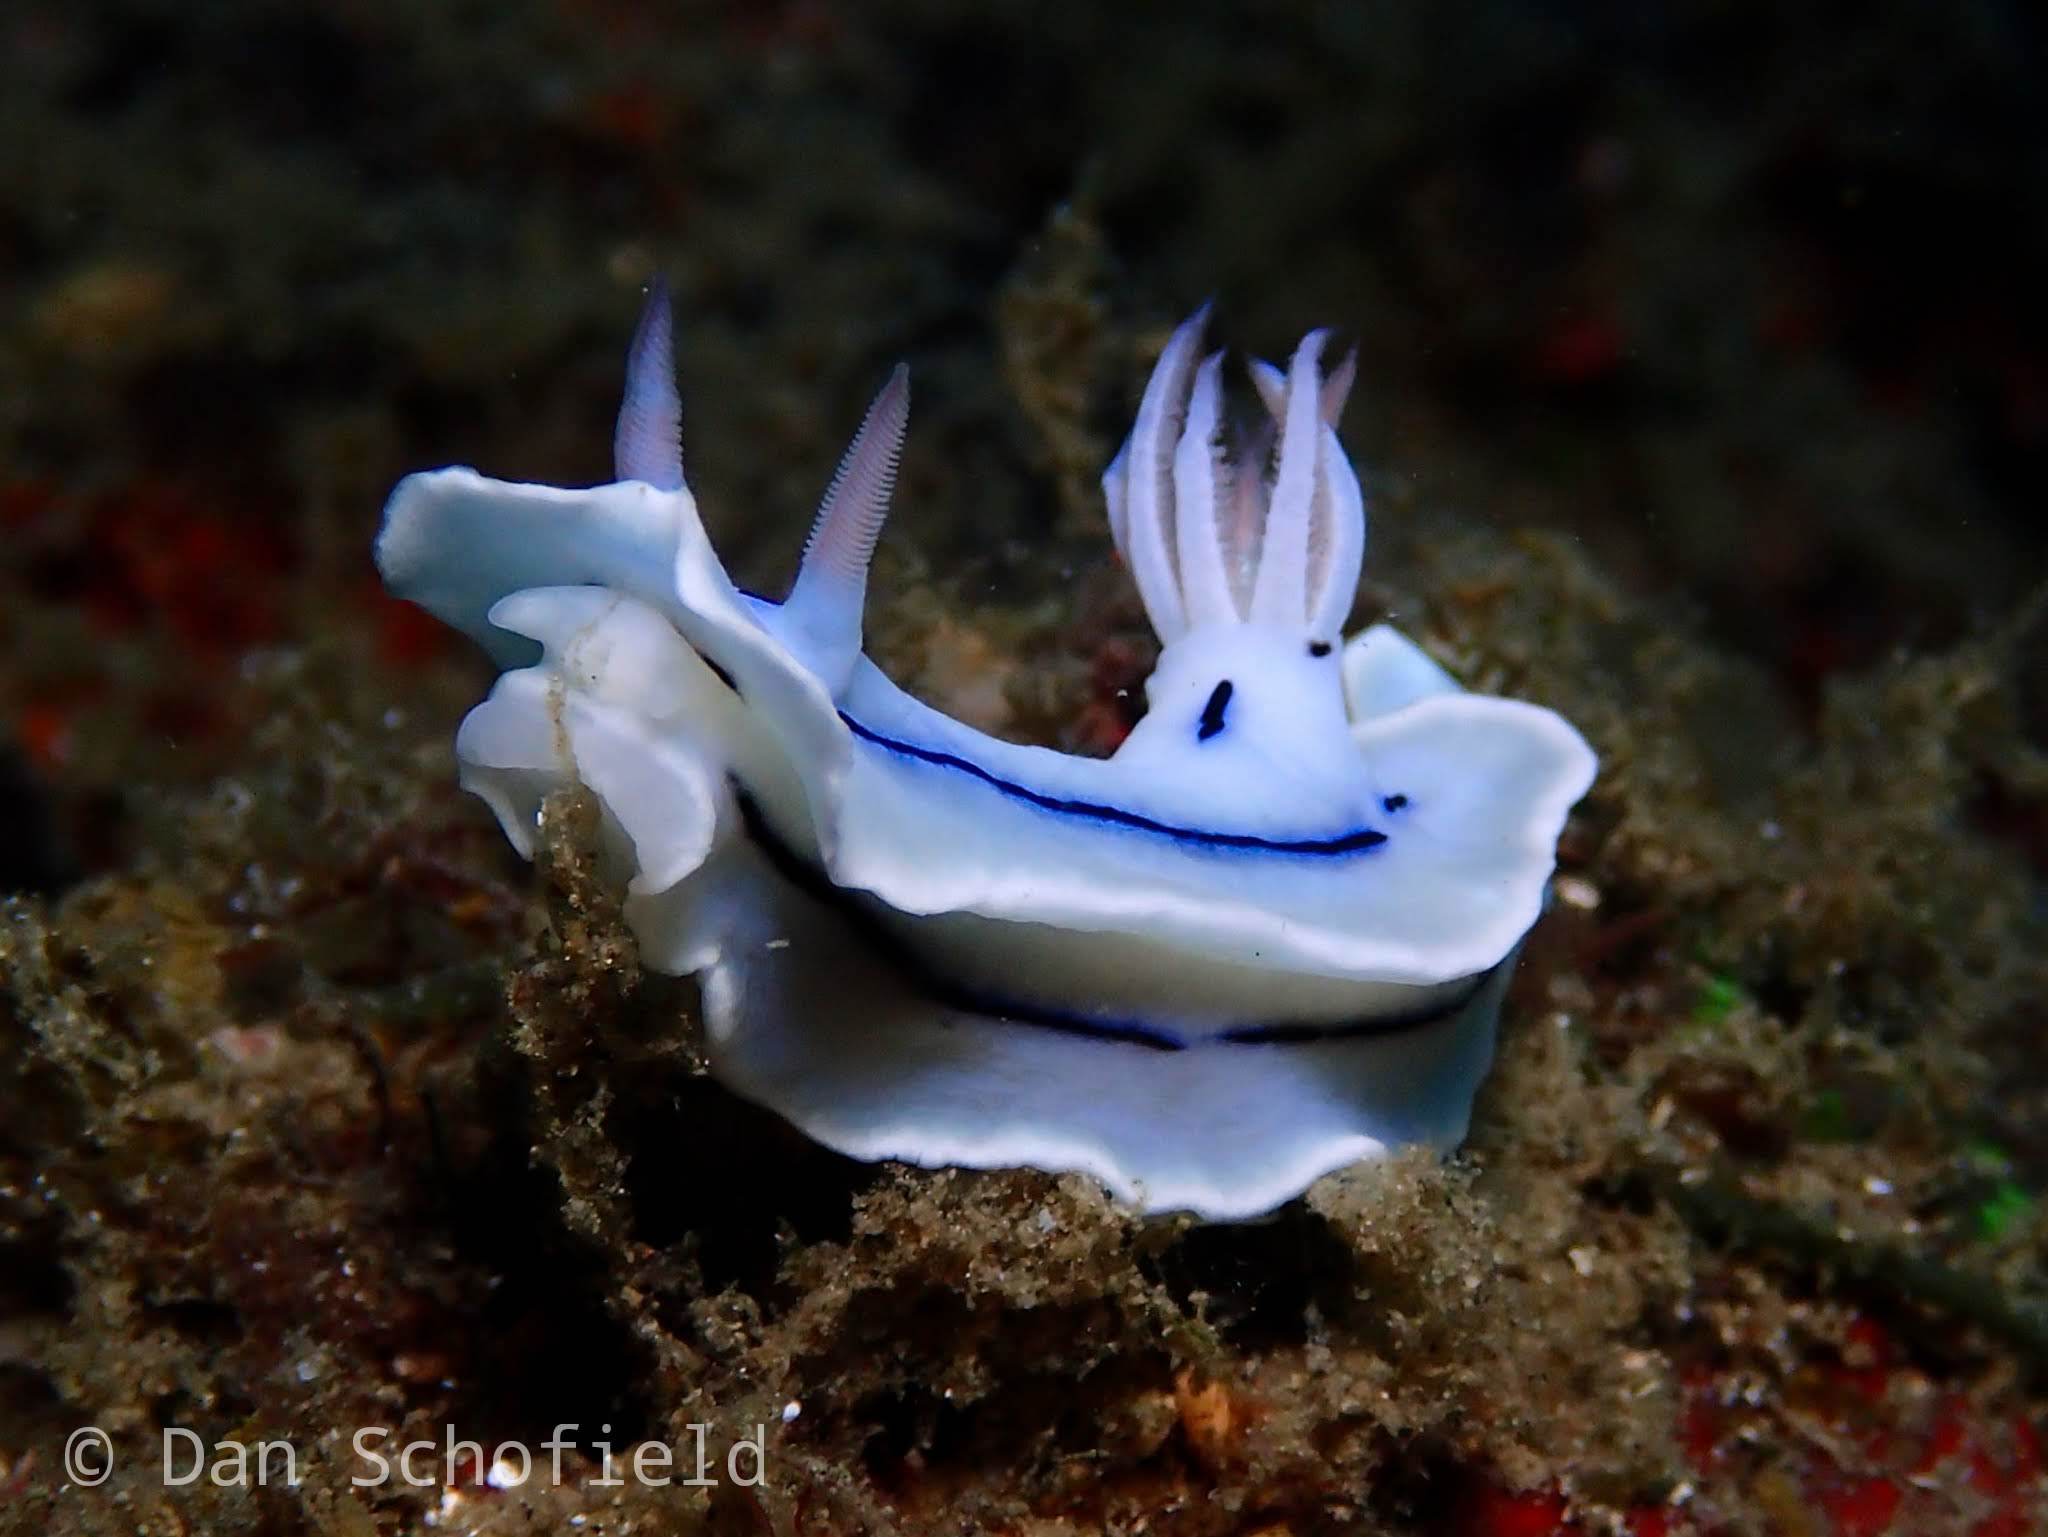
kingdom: Animalia
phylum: Mollusca
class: Gastropoda
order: Nudibranchia
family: Chromodorididae
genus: Chromodoris
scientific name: Chromodoris lochi
